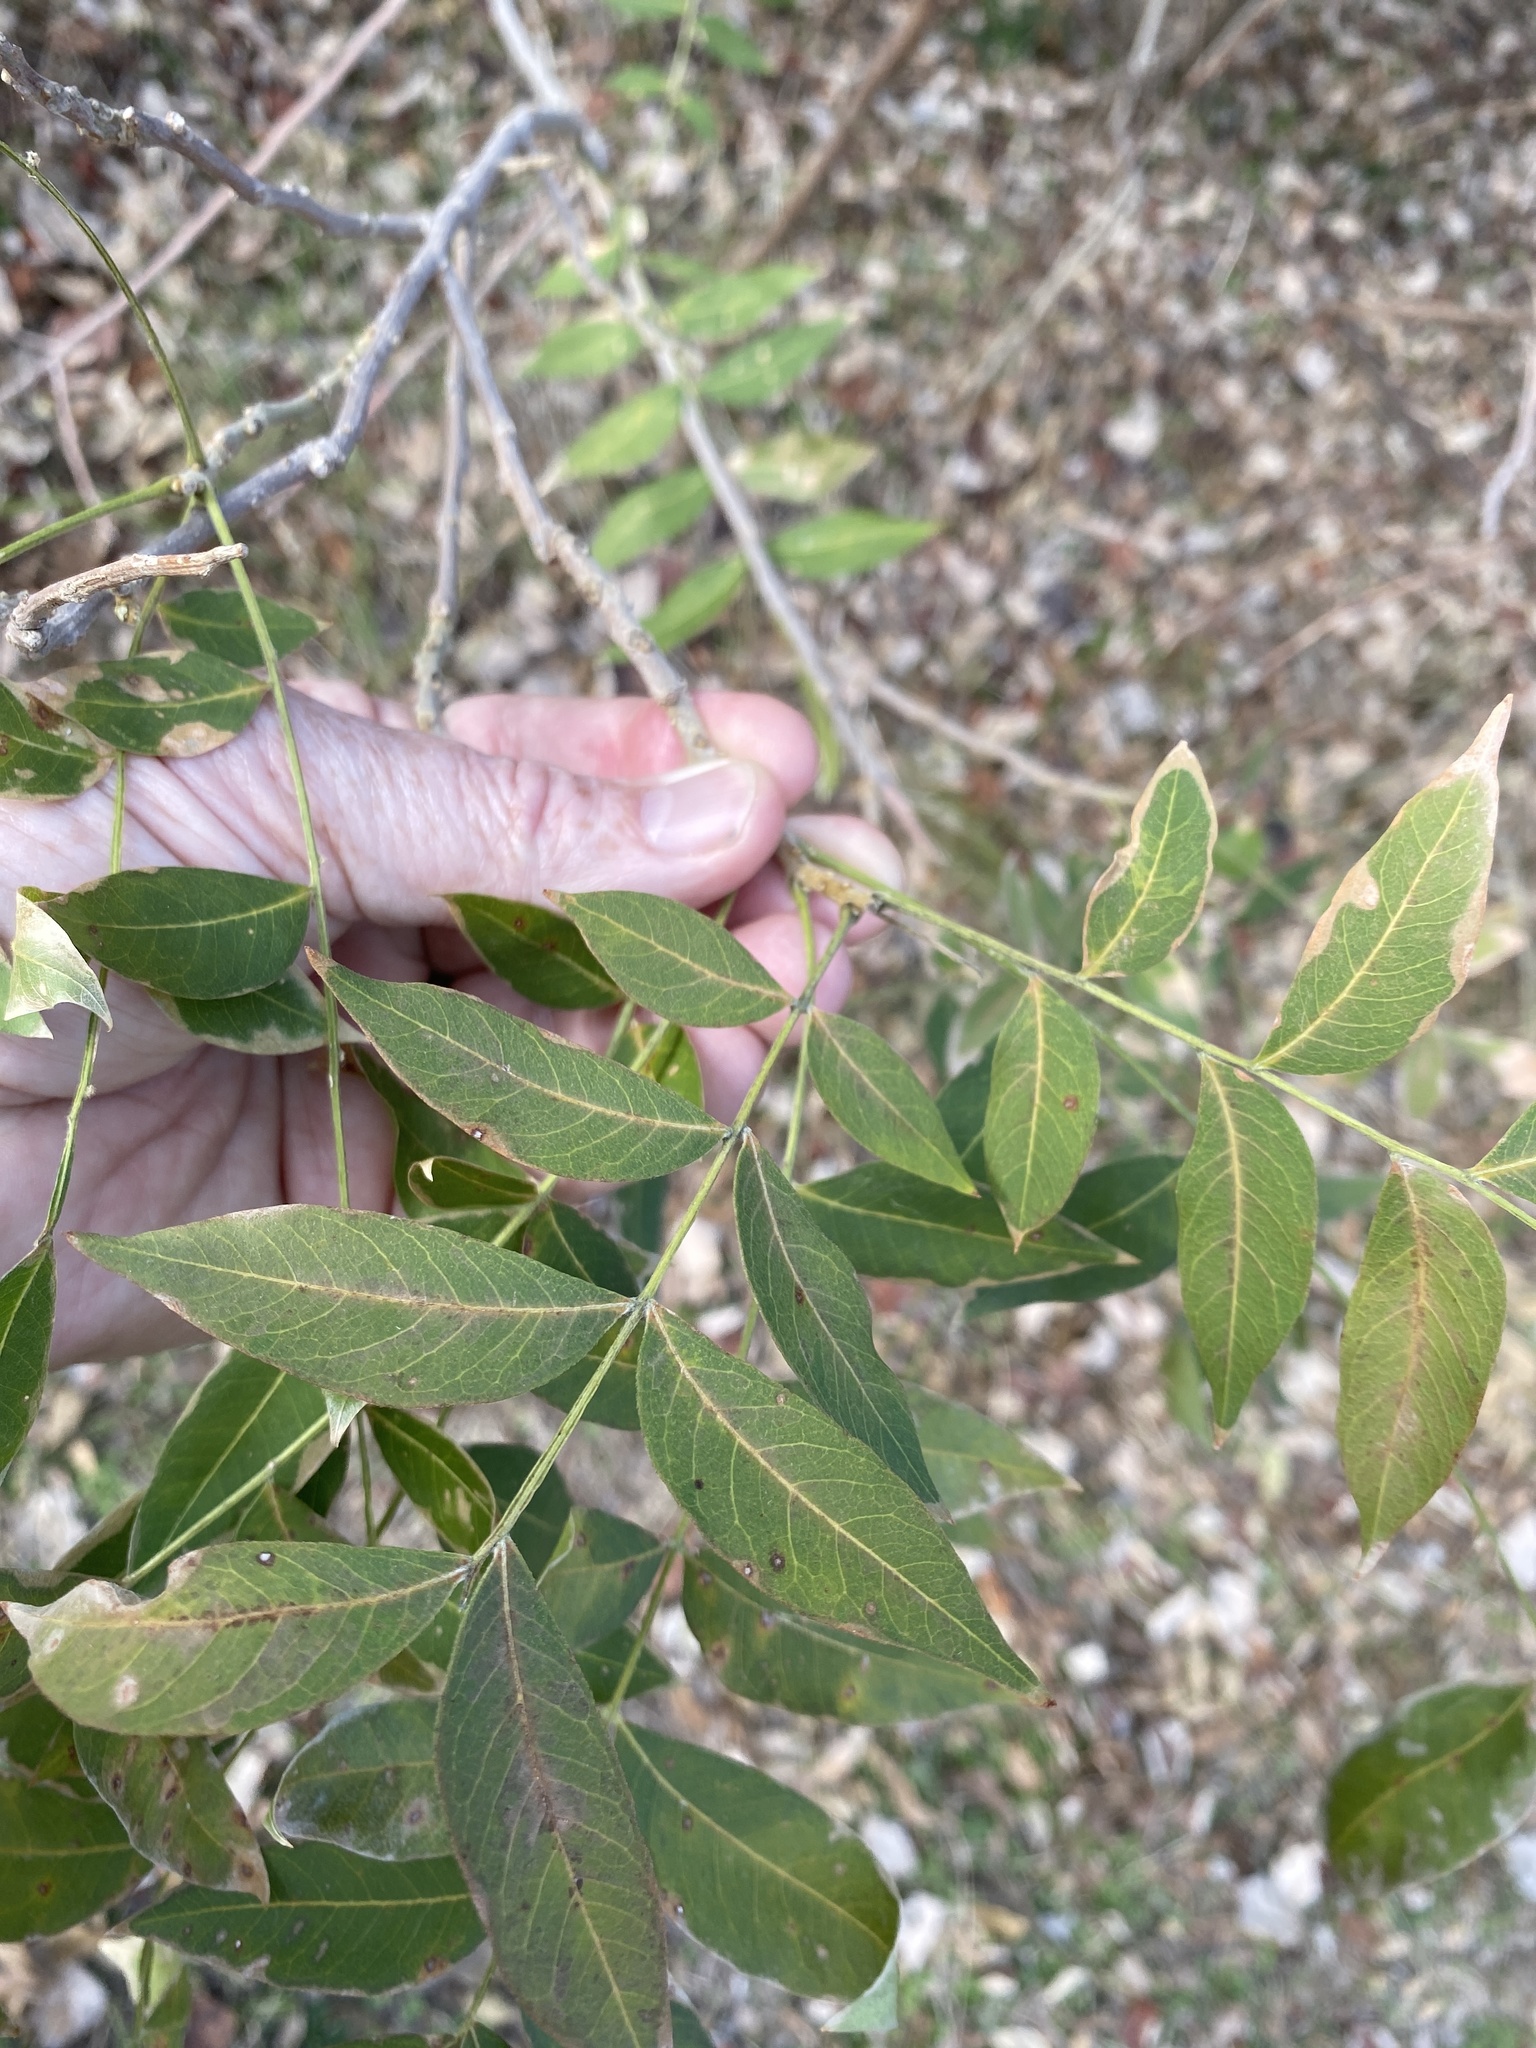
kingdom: Plantae
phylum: Tracheophyta
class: Magnoliopsida
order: Sapindales
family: Sapindaceae
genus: Sapindus
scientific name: Sapindus drummondii
